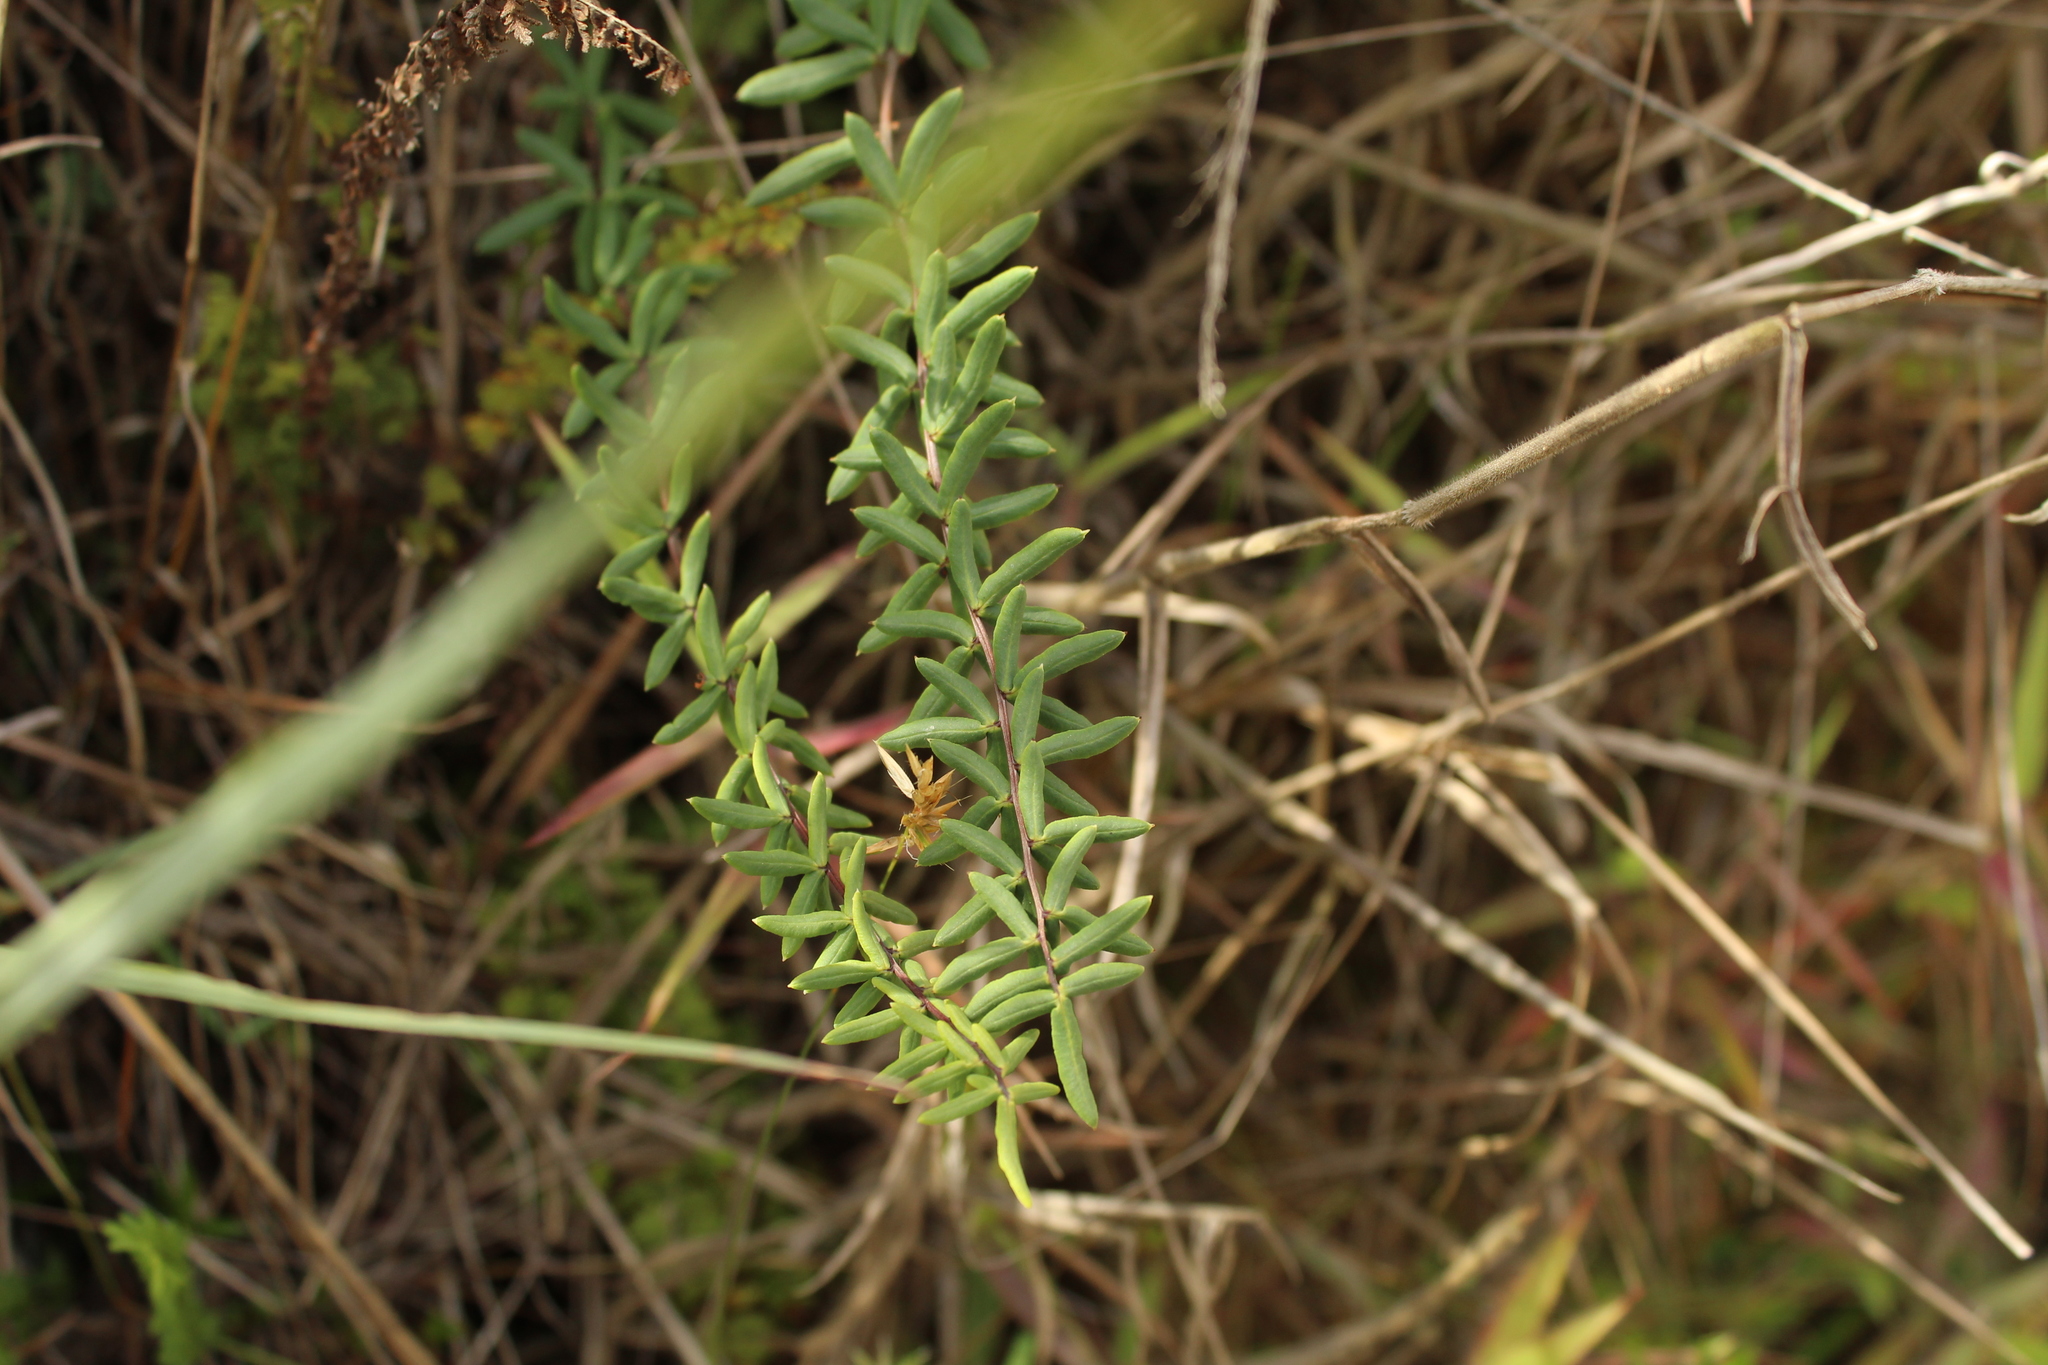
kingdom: Plantae
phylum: Tracheophyta
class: Polypodiopsida
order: Polypodiales
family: Pteridaceae
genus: Pellaea
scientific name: Pellaea ternifolia
